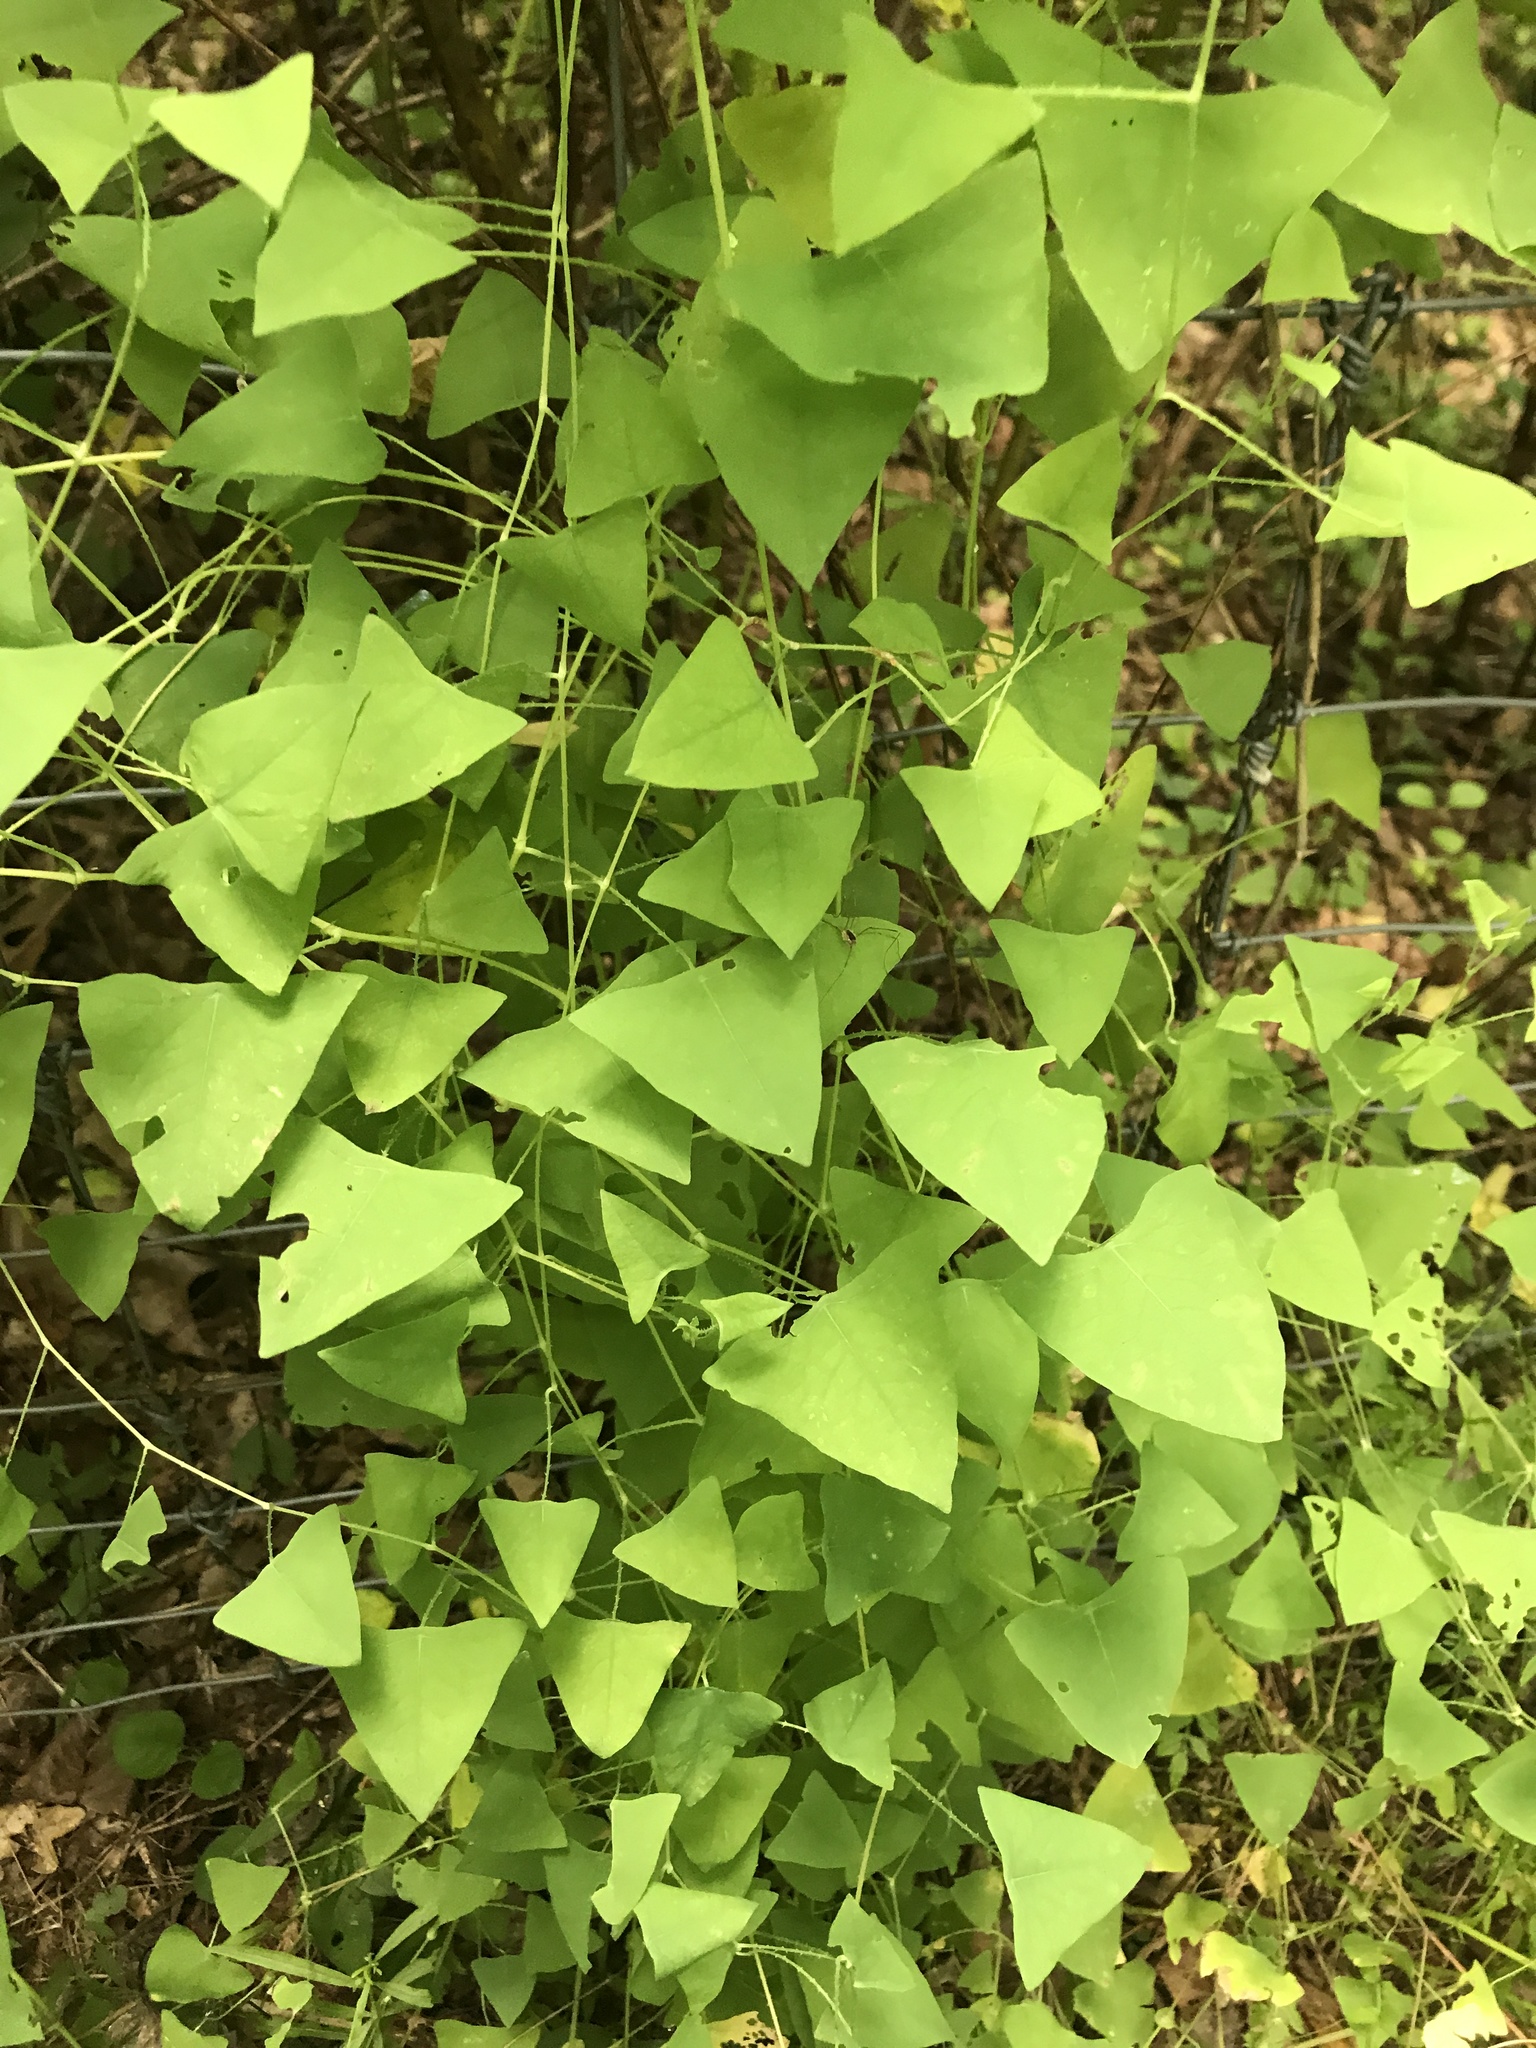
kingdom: Plantae
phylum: Tracheophyta
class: Magnoliopsida
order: Caryophyllales
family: Polygonaceae
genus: Persicaria
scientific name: Persicaria perfoliata
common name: Asiatic tearthumb
